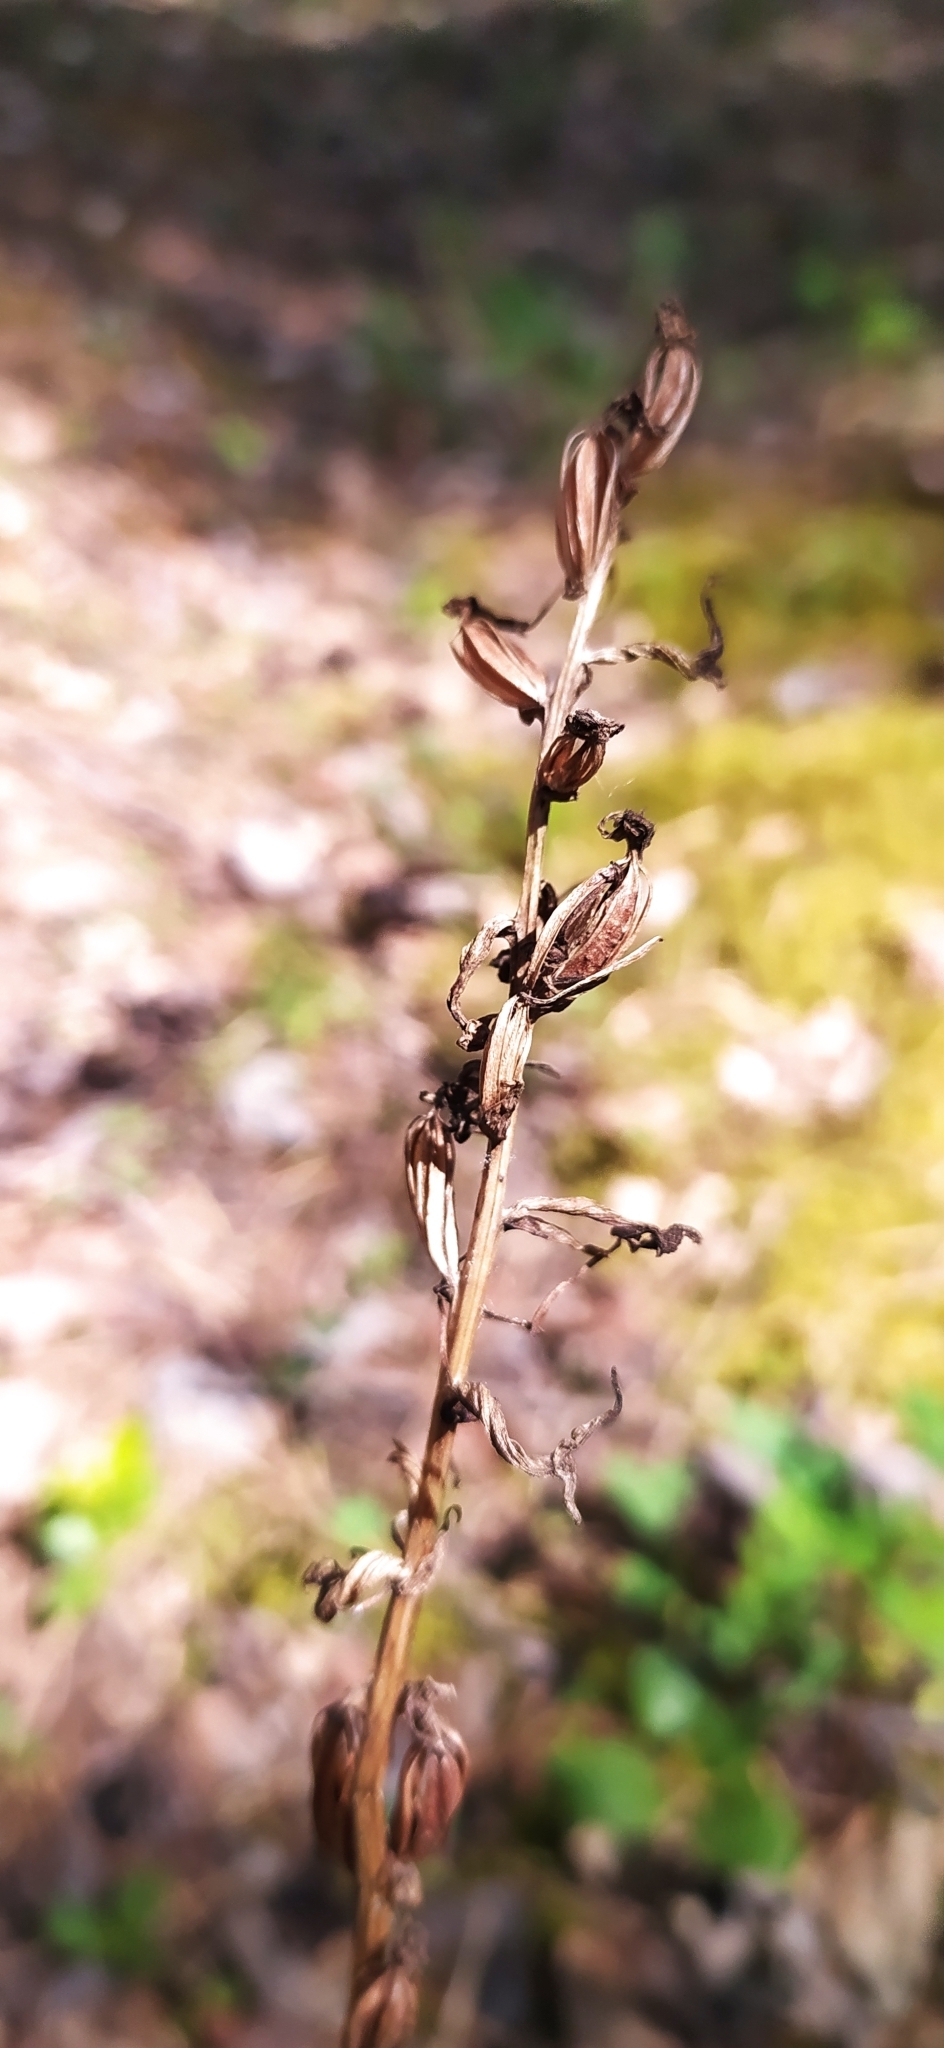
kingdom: Plantae
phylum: Tracheophyta
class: Liliopsida
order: Asparagales
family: Orchidaceae
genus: Platanthera
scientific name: Platanthera bifolia
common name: Lesser butterfly-orchid
